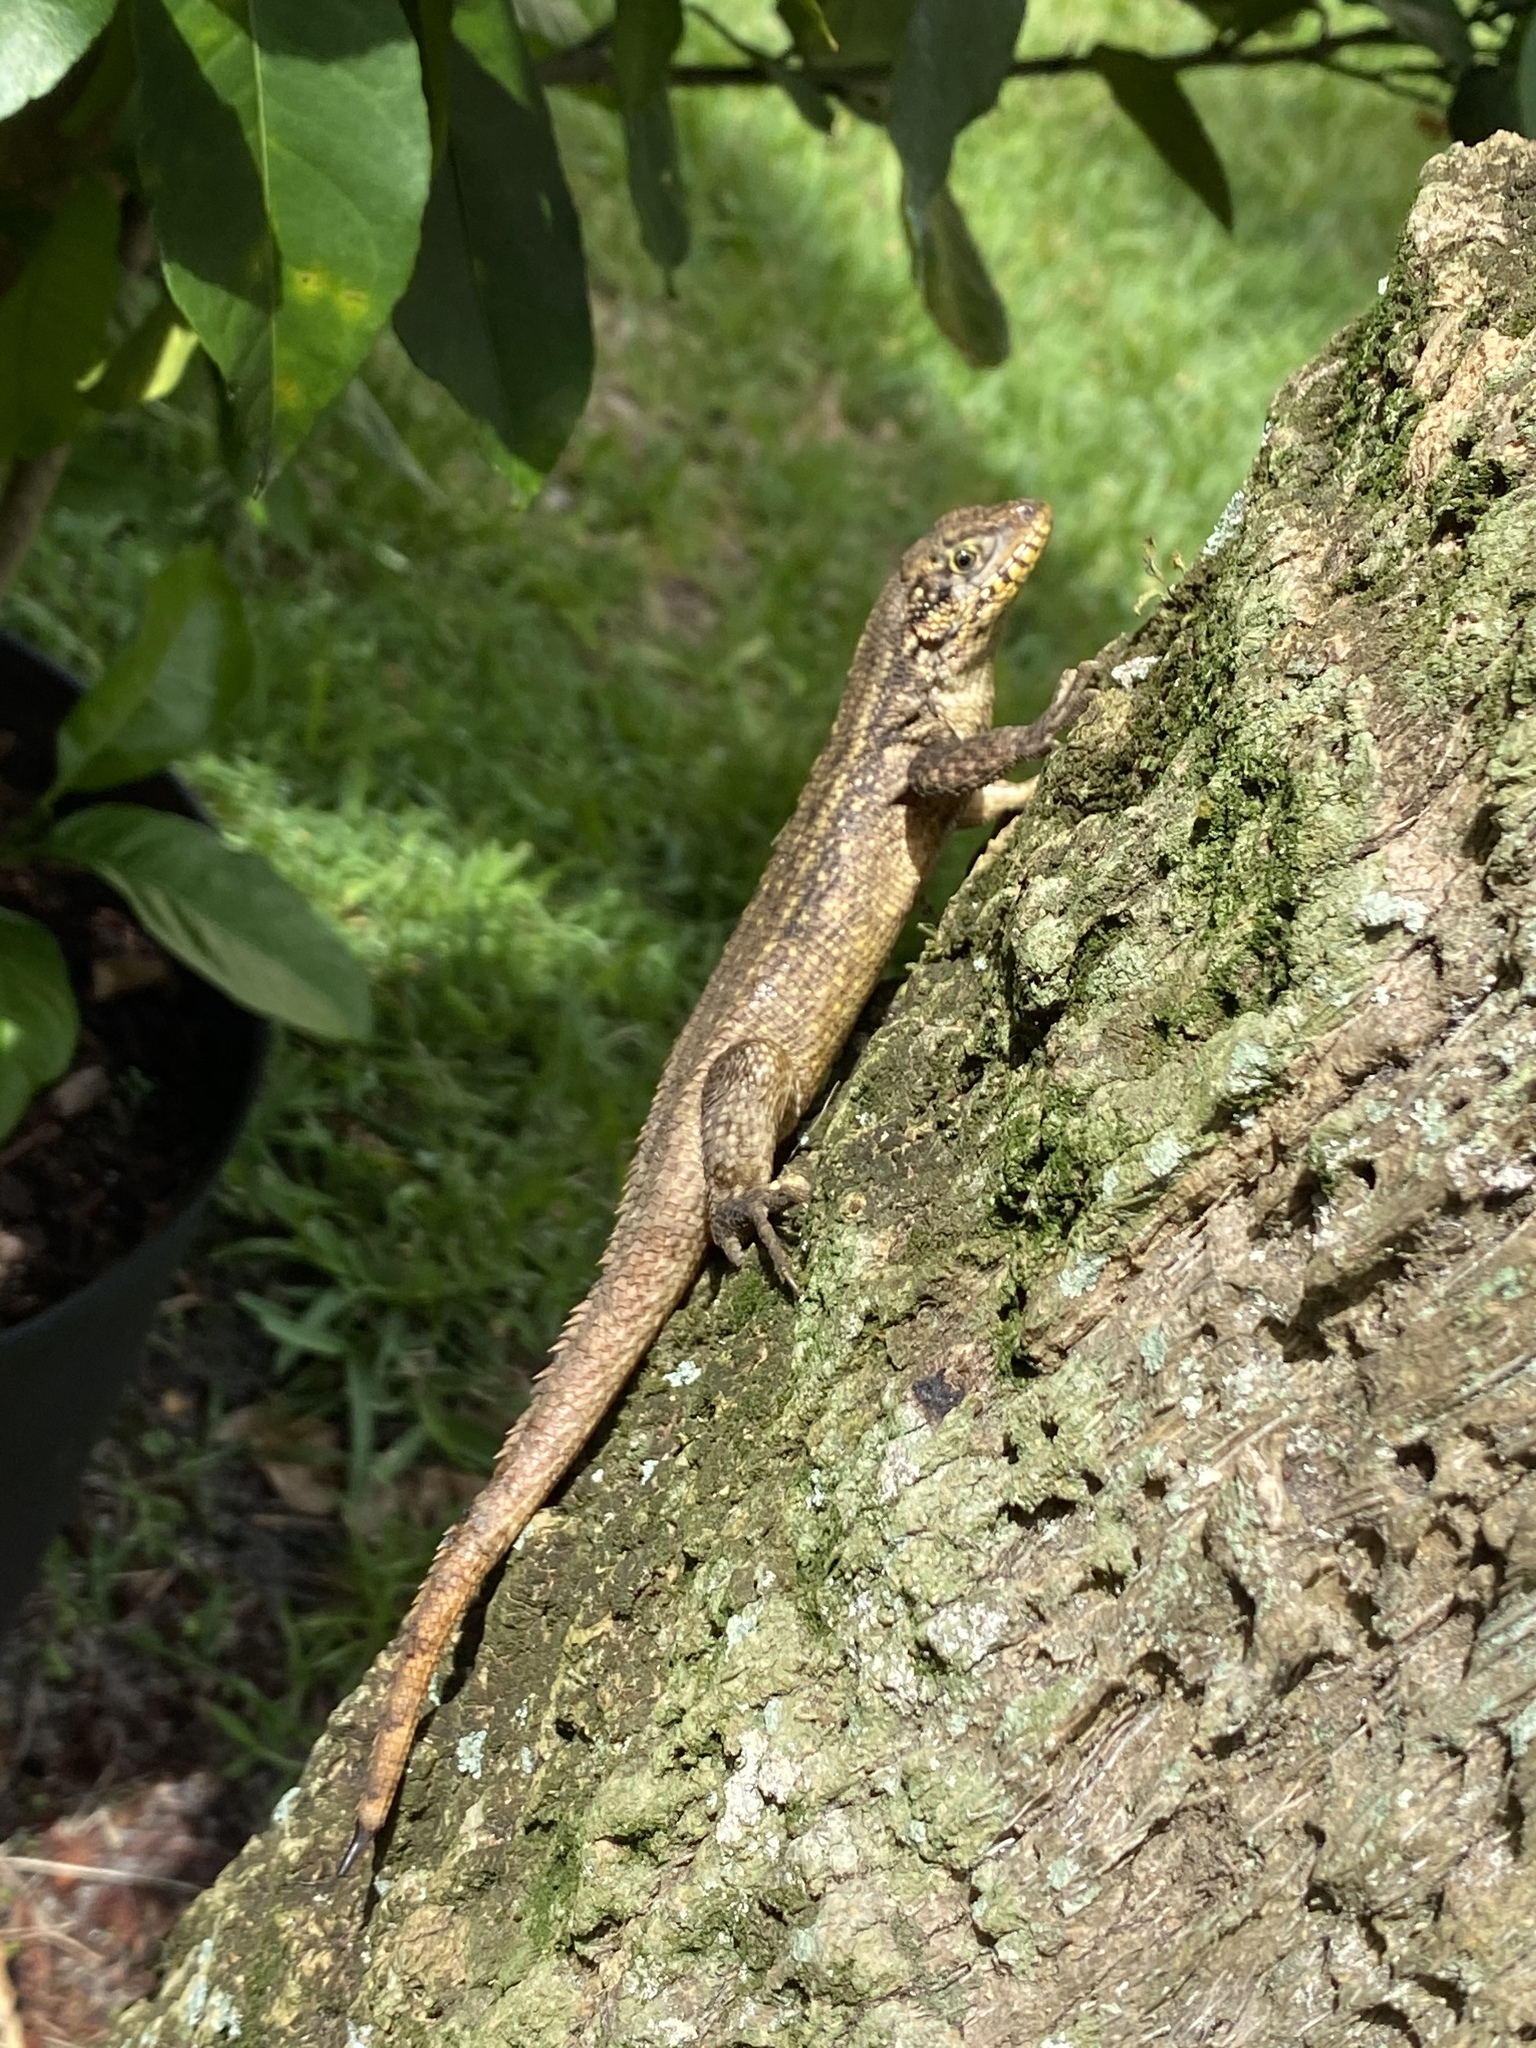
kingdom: Animalia
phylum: Chordata
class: Squamata
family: Leiocephalidae
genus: Leiocephalus
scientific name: Leiocephalus carinatus
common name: Northern curly-tailed lizard
